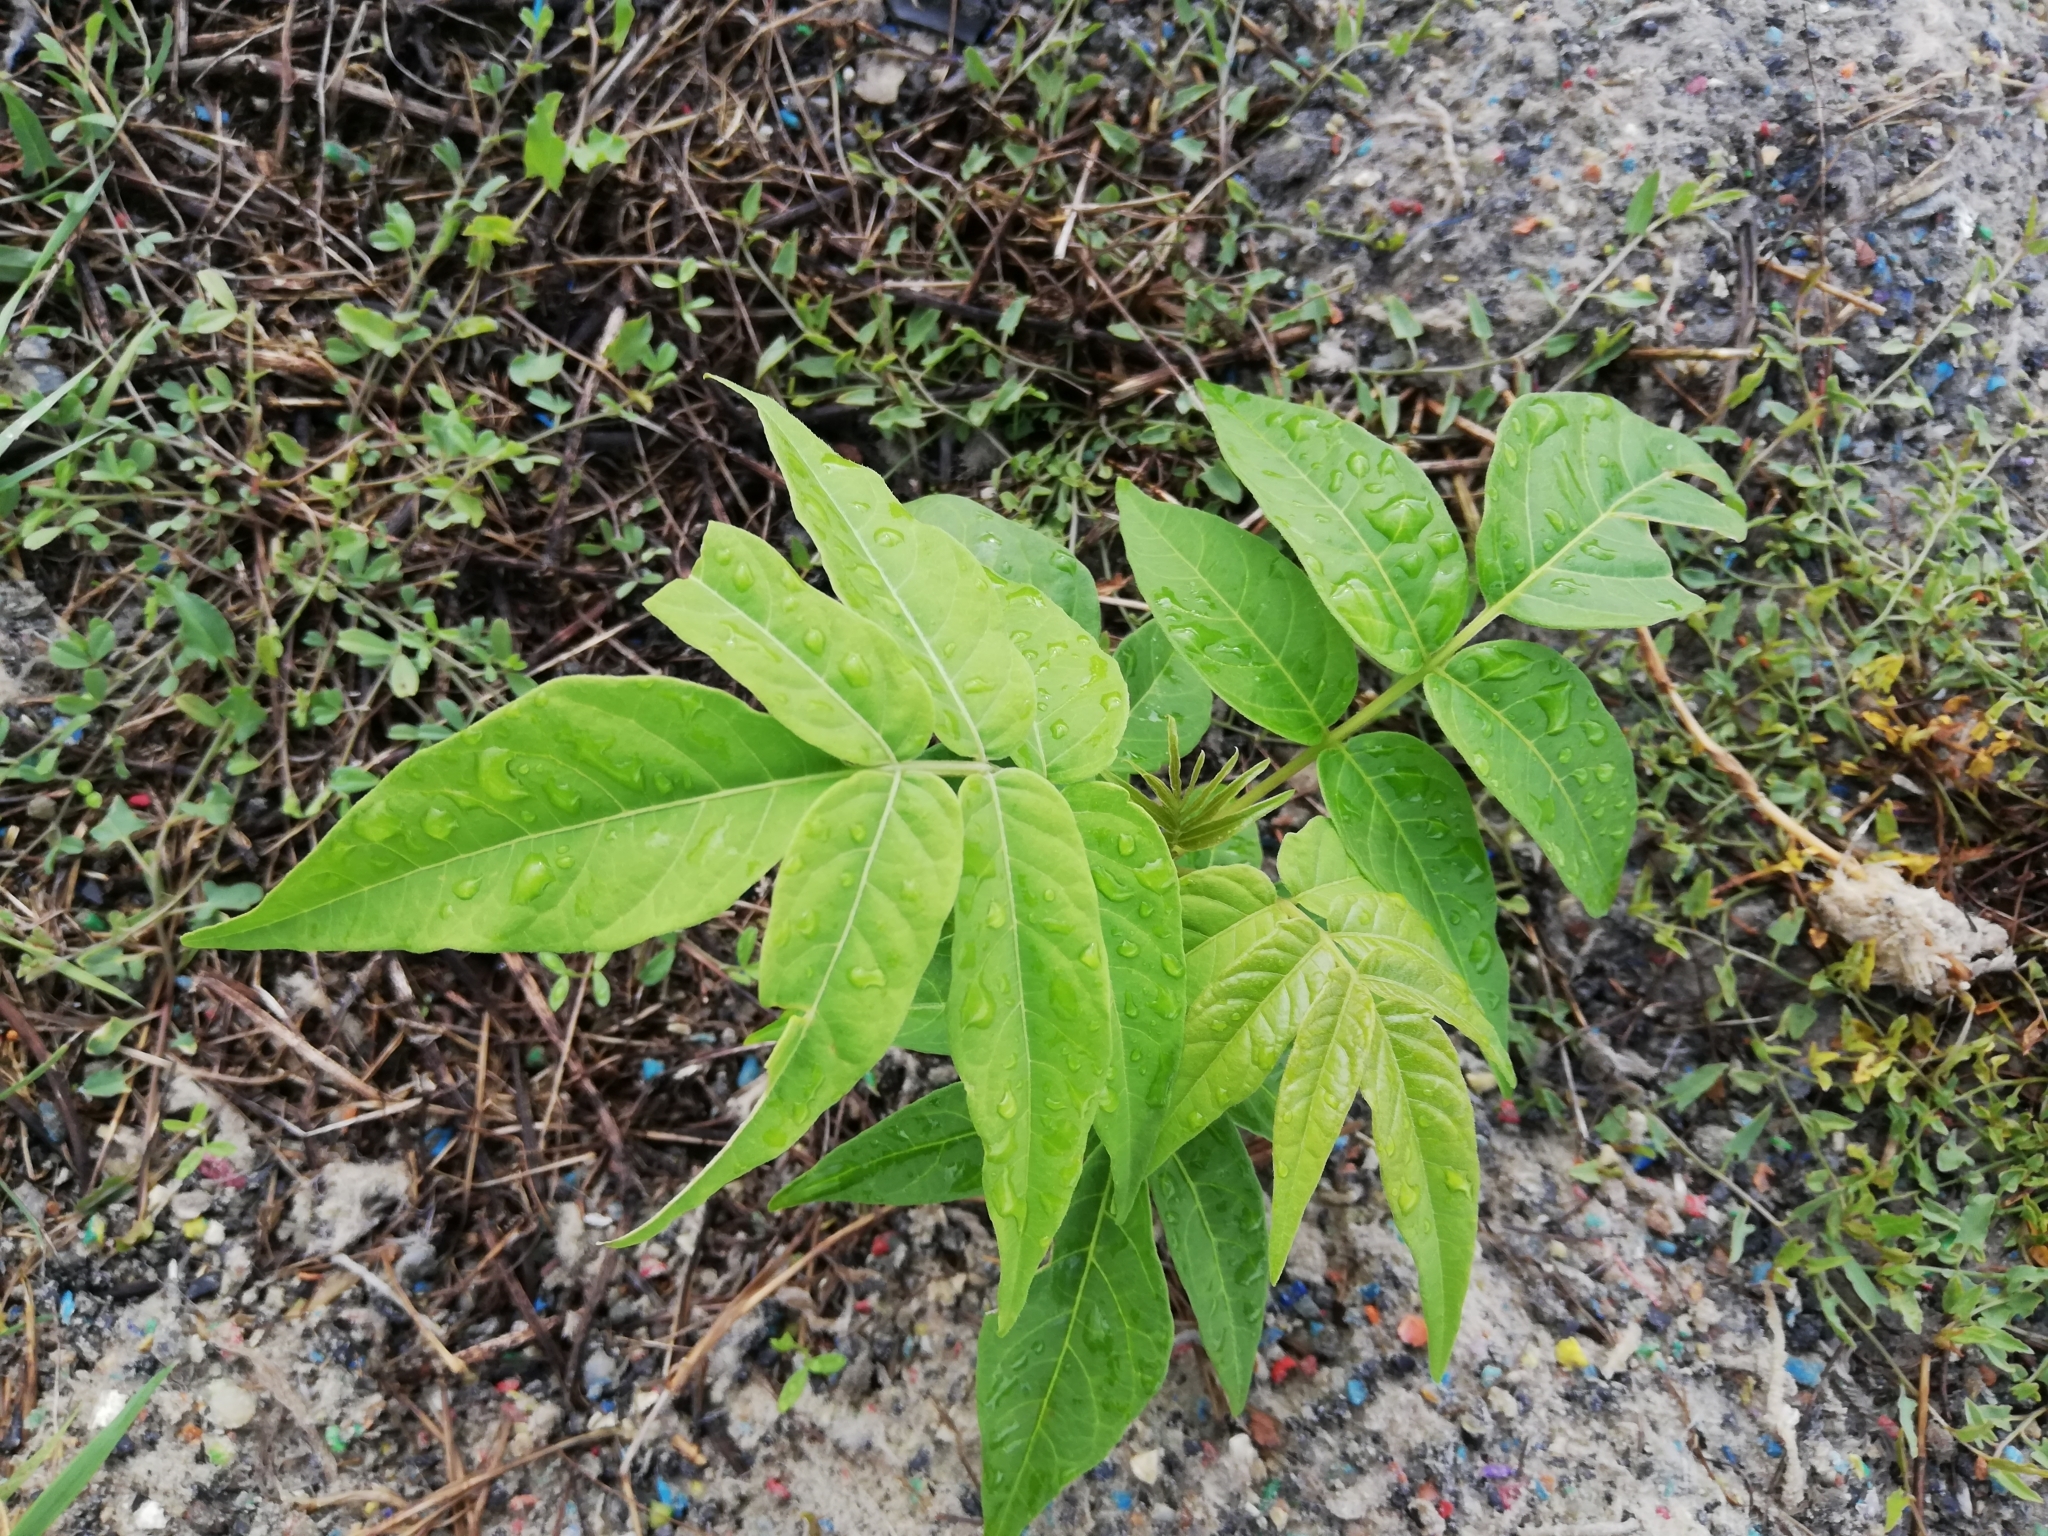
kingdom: Plantae
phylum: Tracheophyta
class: Magnoliopsida
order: Sapindales
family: Simaroubaceae
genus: Ailanthus
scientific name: Ailanthus altissima
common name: Tree-of-heaven
